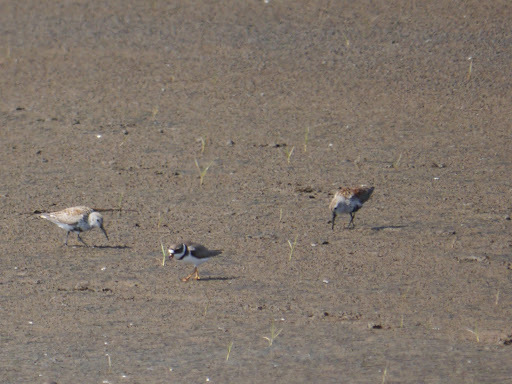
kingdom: Animalia
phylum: Chordata
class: Aves
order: Charadriiformes
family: Scolopacidae
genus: Calidris
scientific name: Calidris alpina
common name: Dunlin
